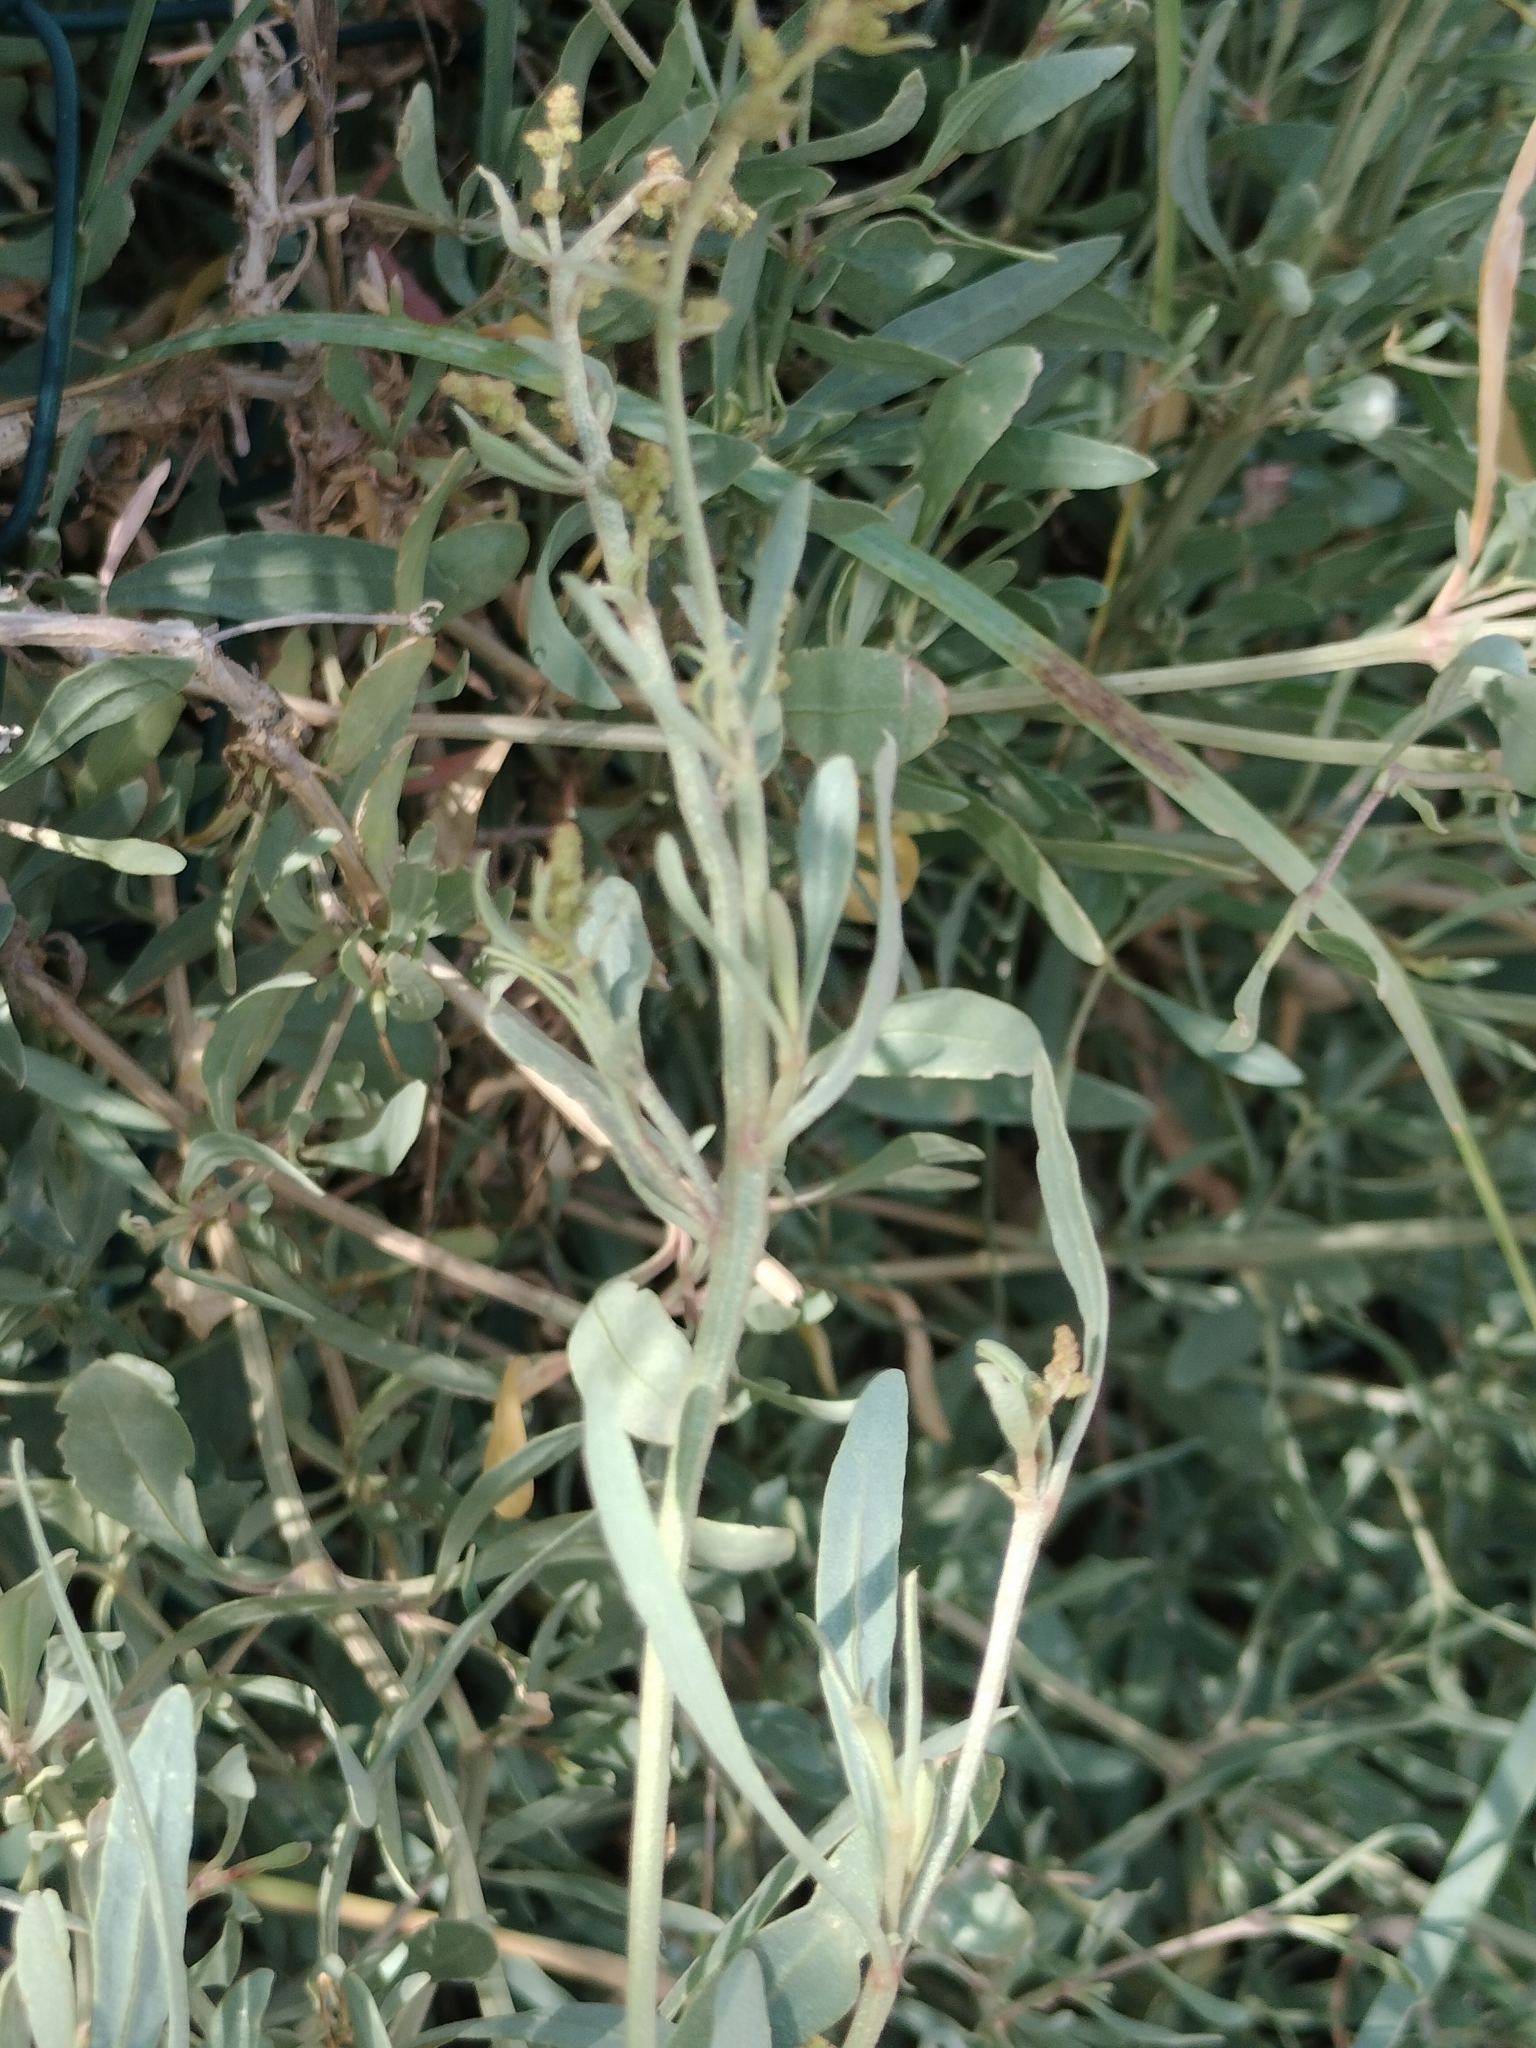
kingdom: Plantae
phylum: Tracheophyta
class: Magnoliopsida
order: Caryophyllales
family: Amaranthaceae
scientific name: Amaranthaceae
